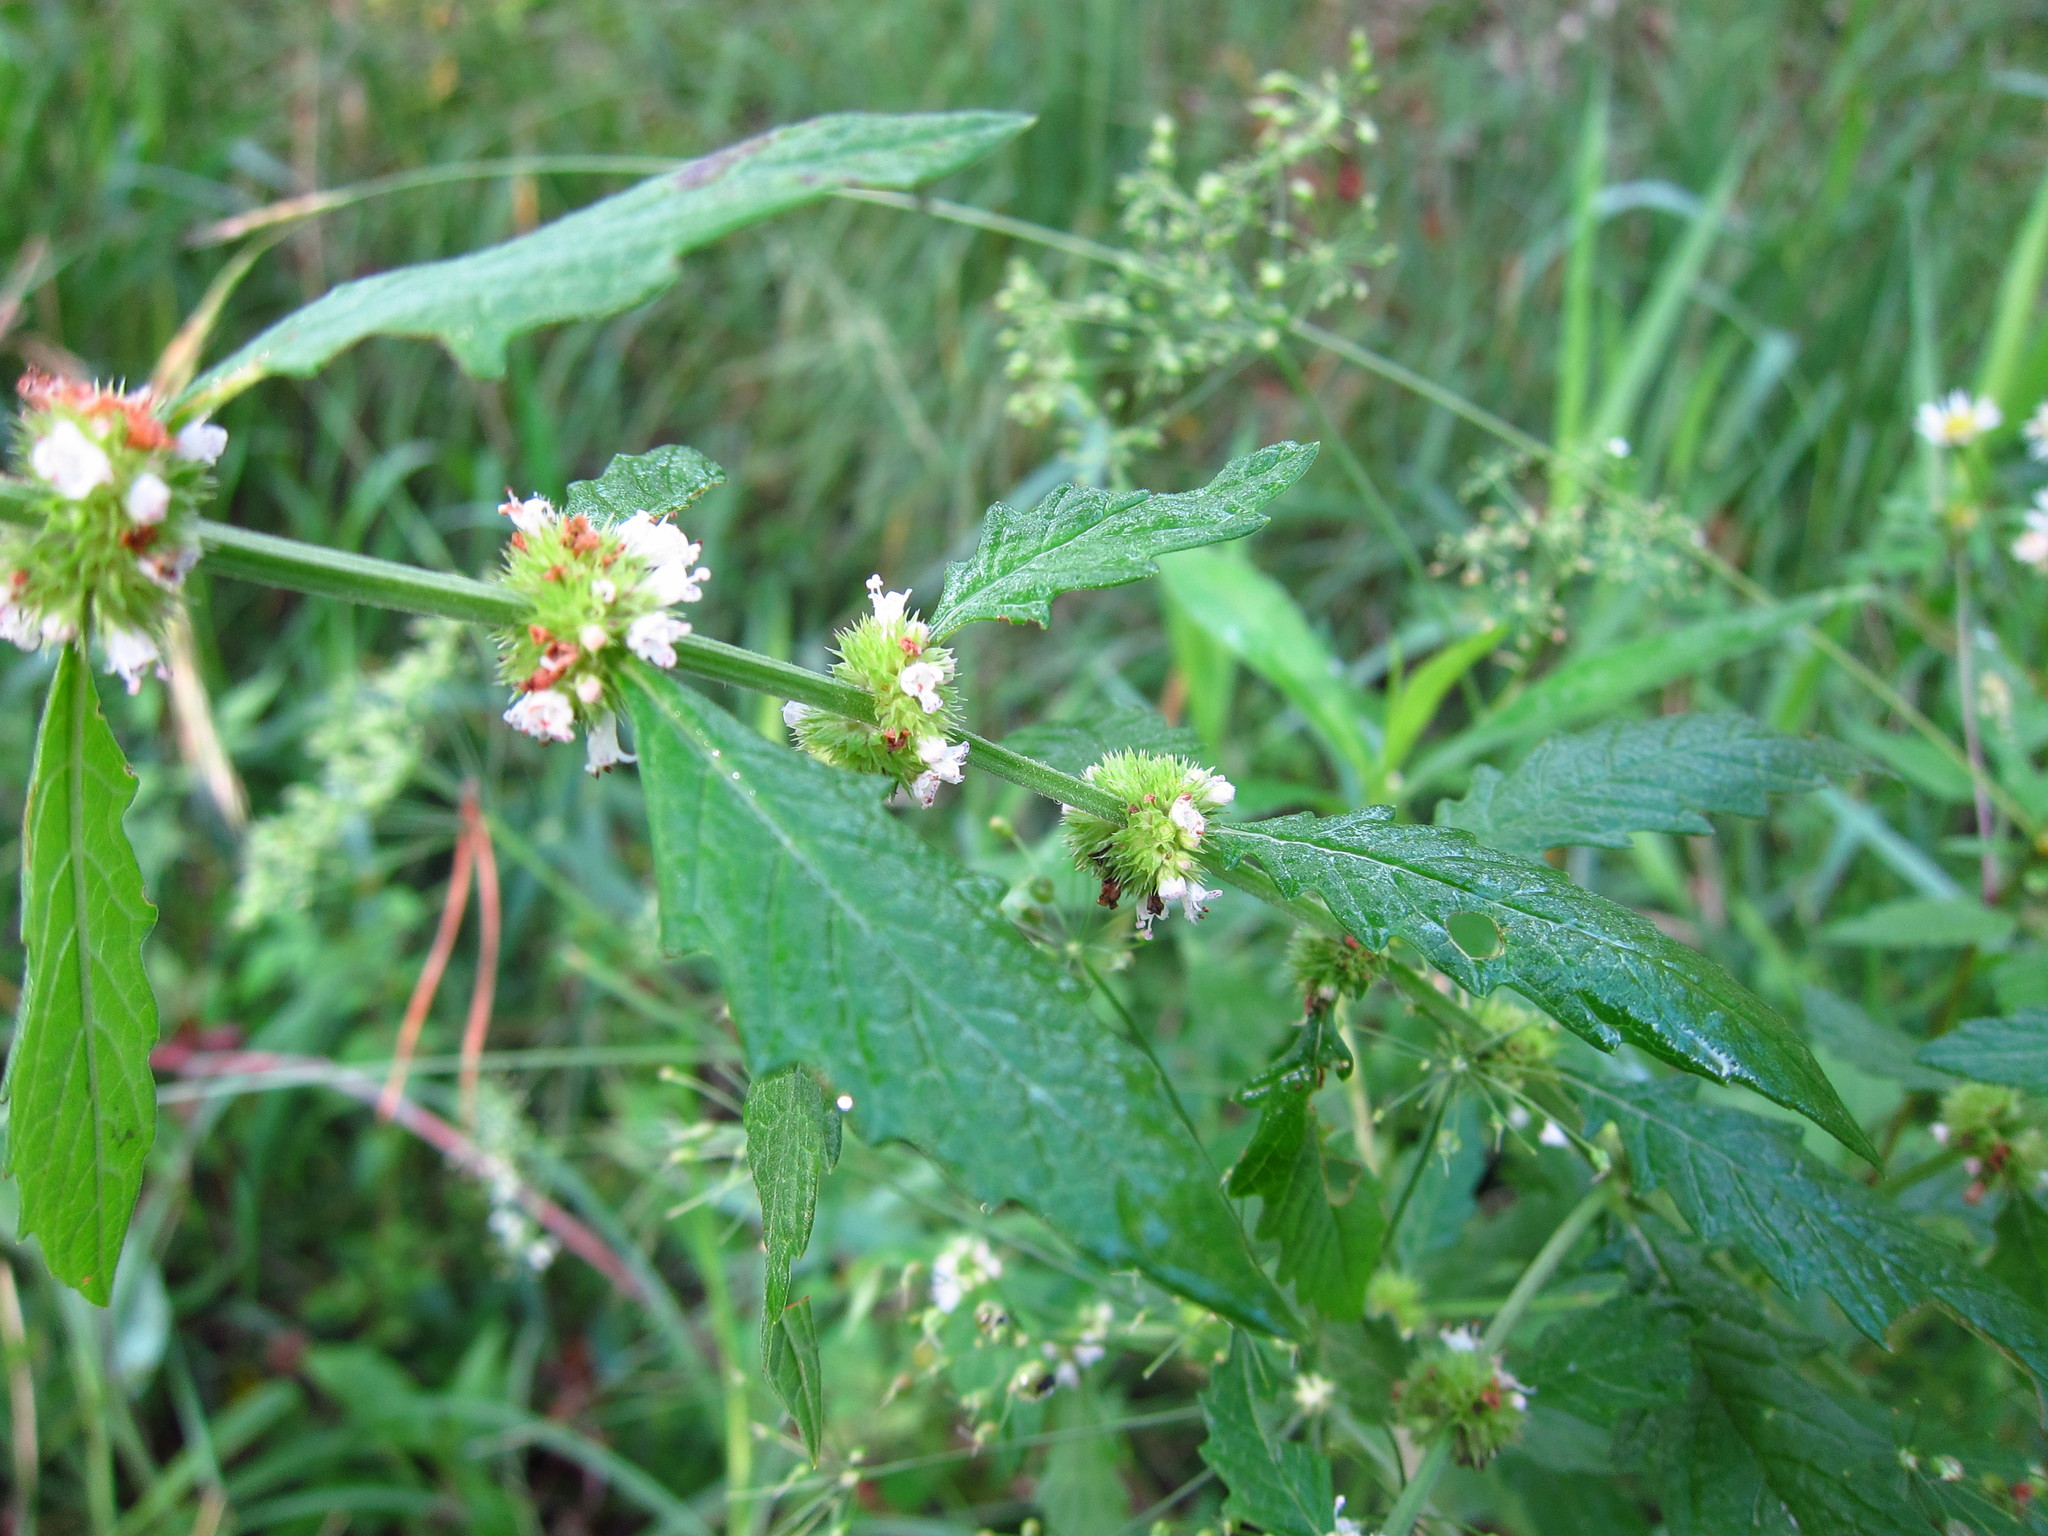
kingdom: Plantae
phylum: Tracheophyta
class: Magnoliopsida
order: Lamiales
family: Lamiaceae
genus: Lycopus
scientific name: Lycopus europaeus
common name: European bugleweed
